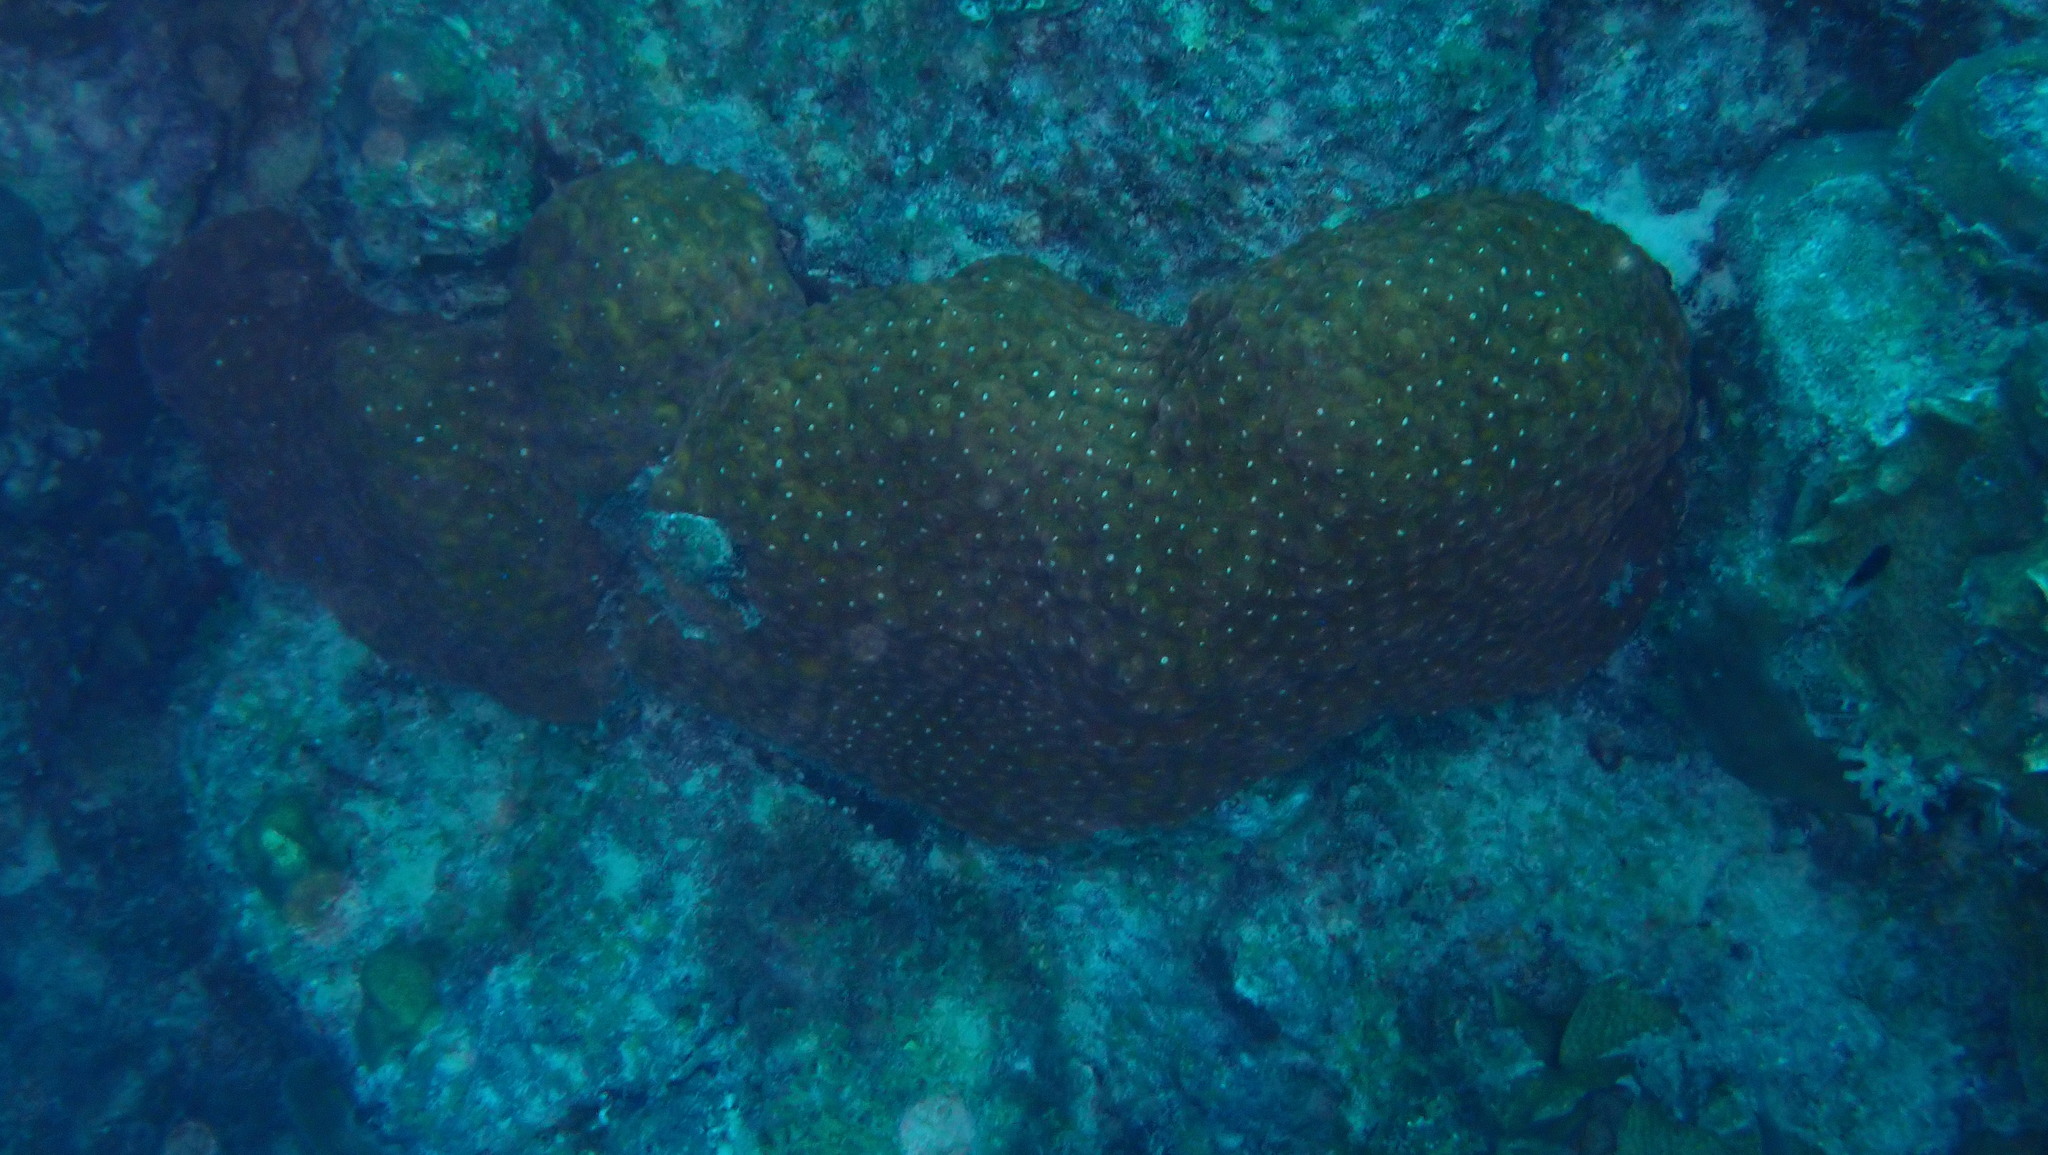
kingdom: Animalia
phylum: Cnidaria
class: Anthozoa
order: Scleractinia
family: Montastraeidae
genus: Montastraea
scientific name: Montastraea cavernosa
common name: Great star coral
